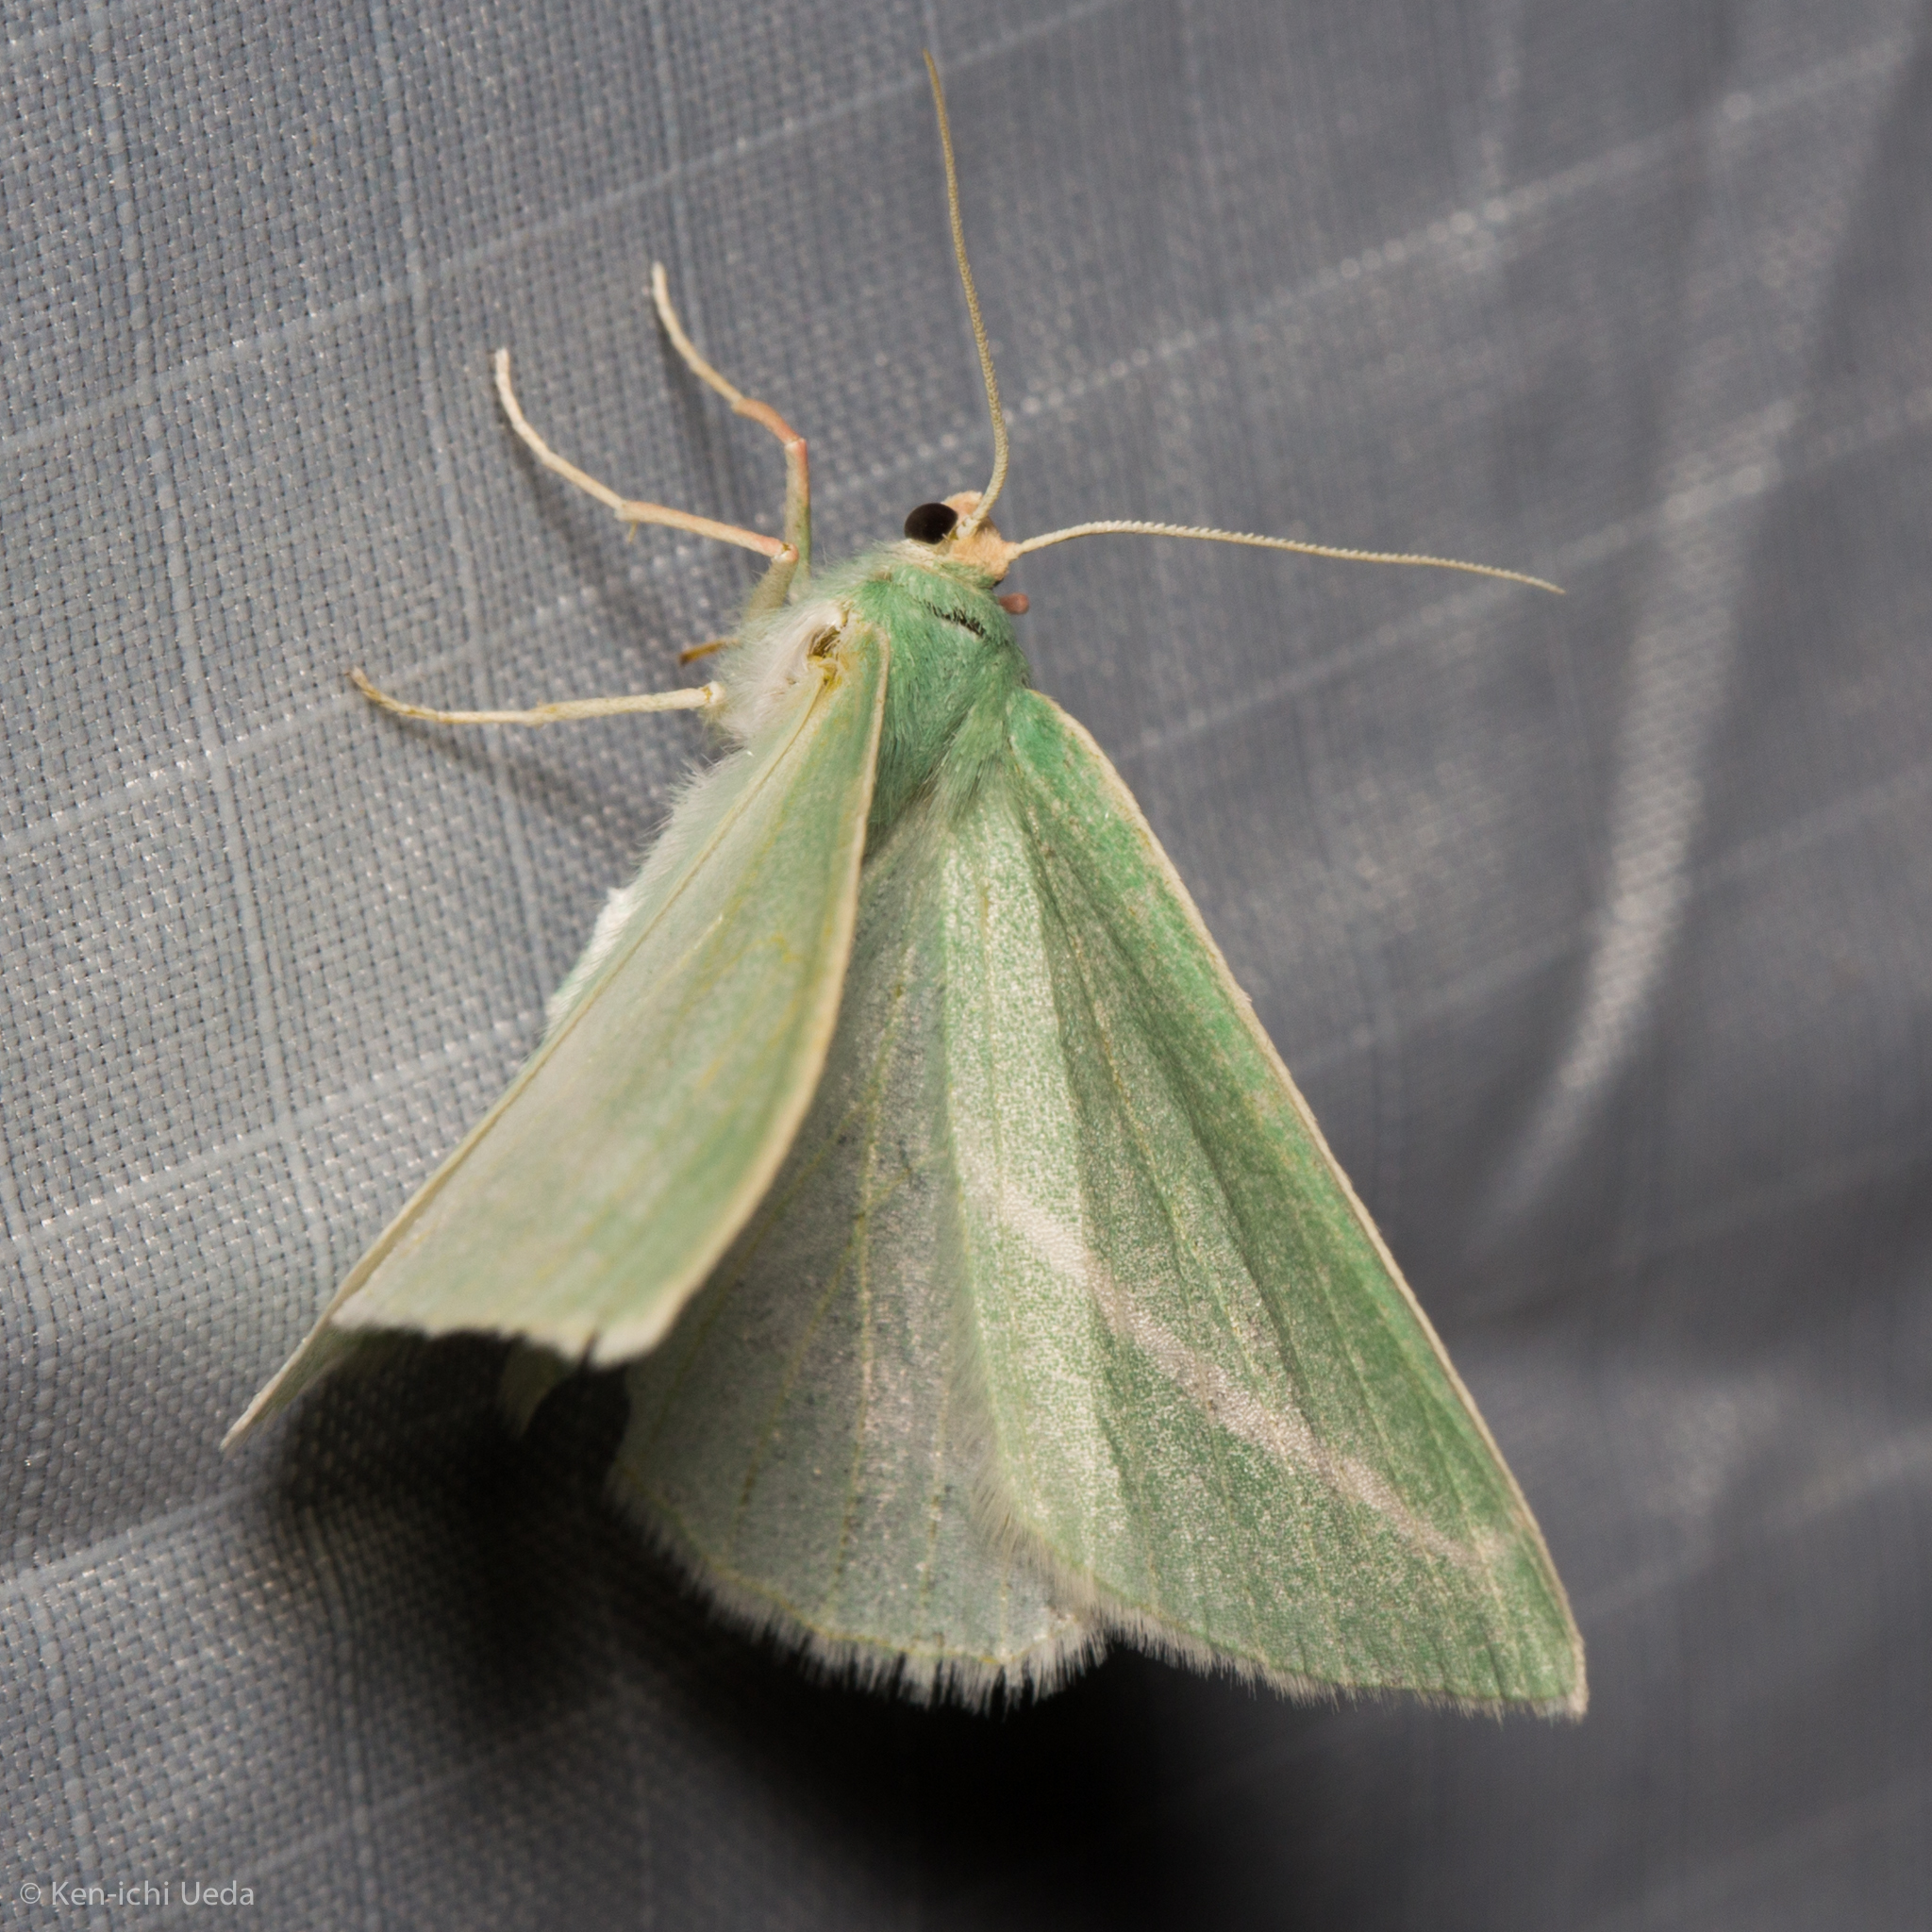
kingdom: Animalia
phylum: Arthropoda
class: Insecta
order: Lepidoptera
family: Geometridae
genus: Chlorosea
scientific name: Chlorosea margaretaria
